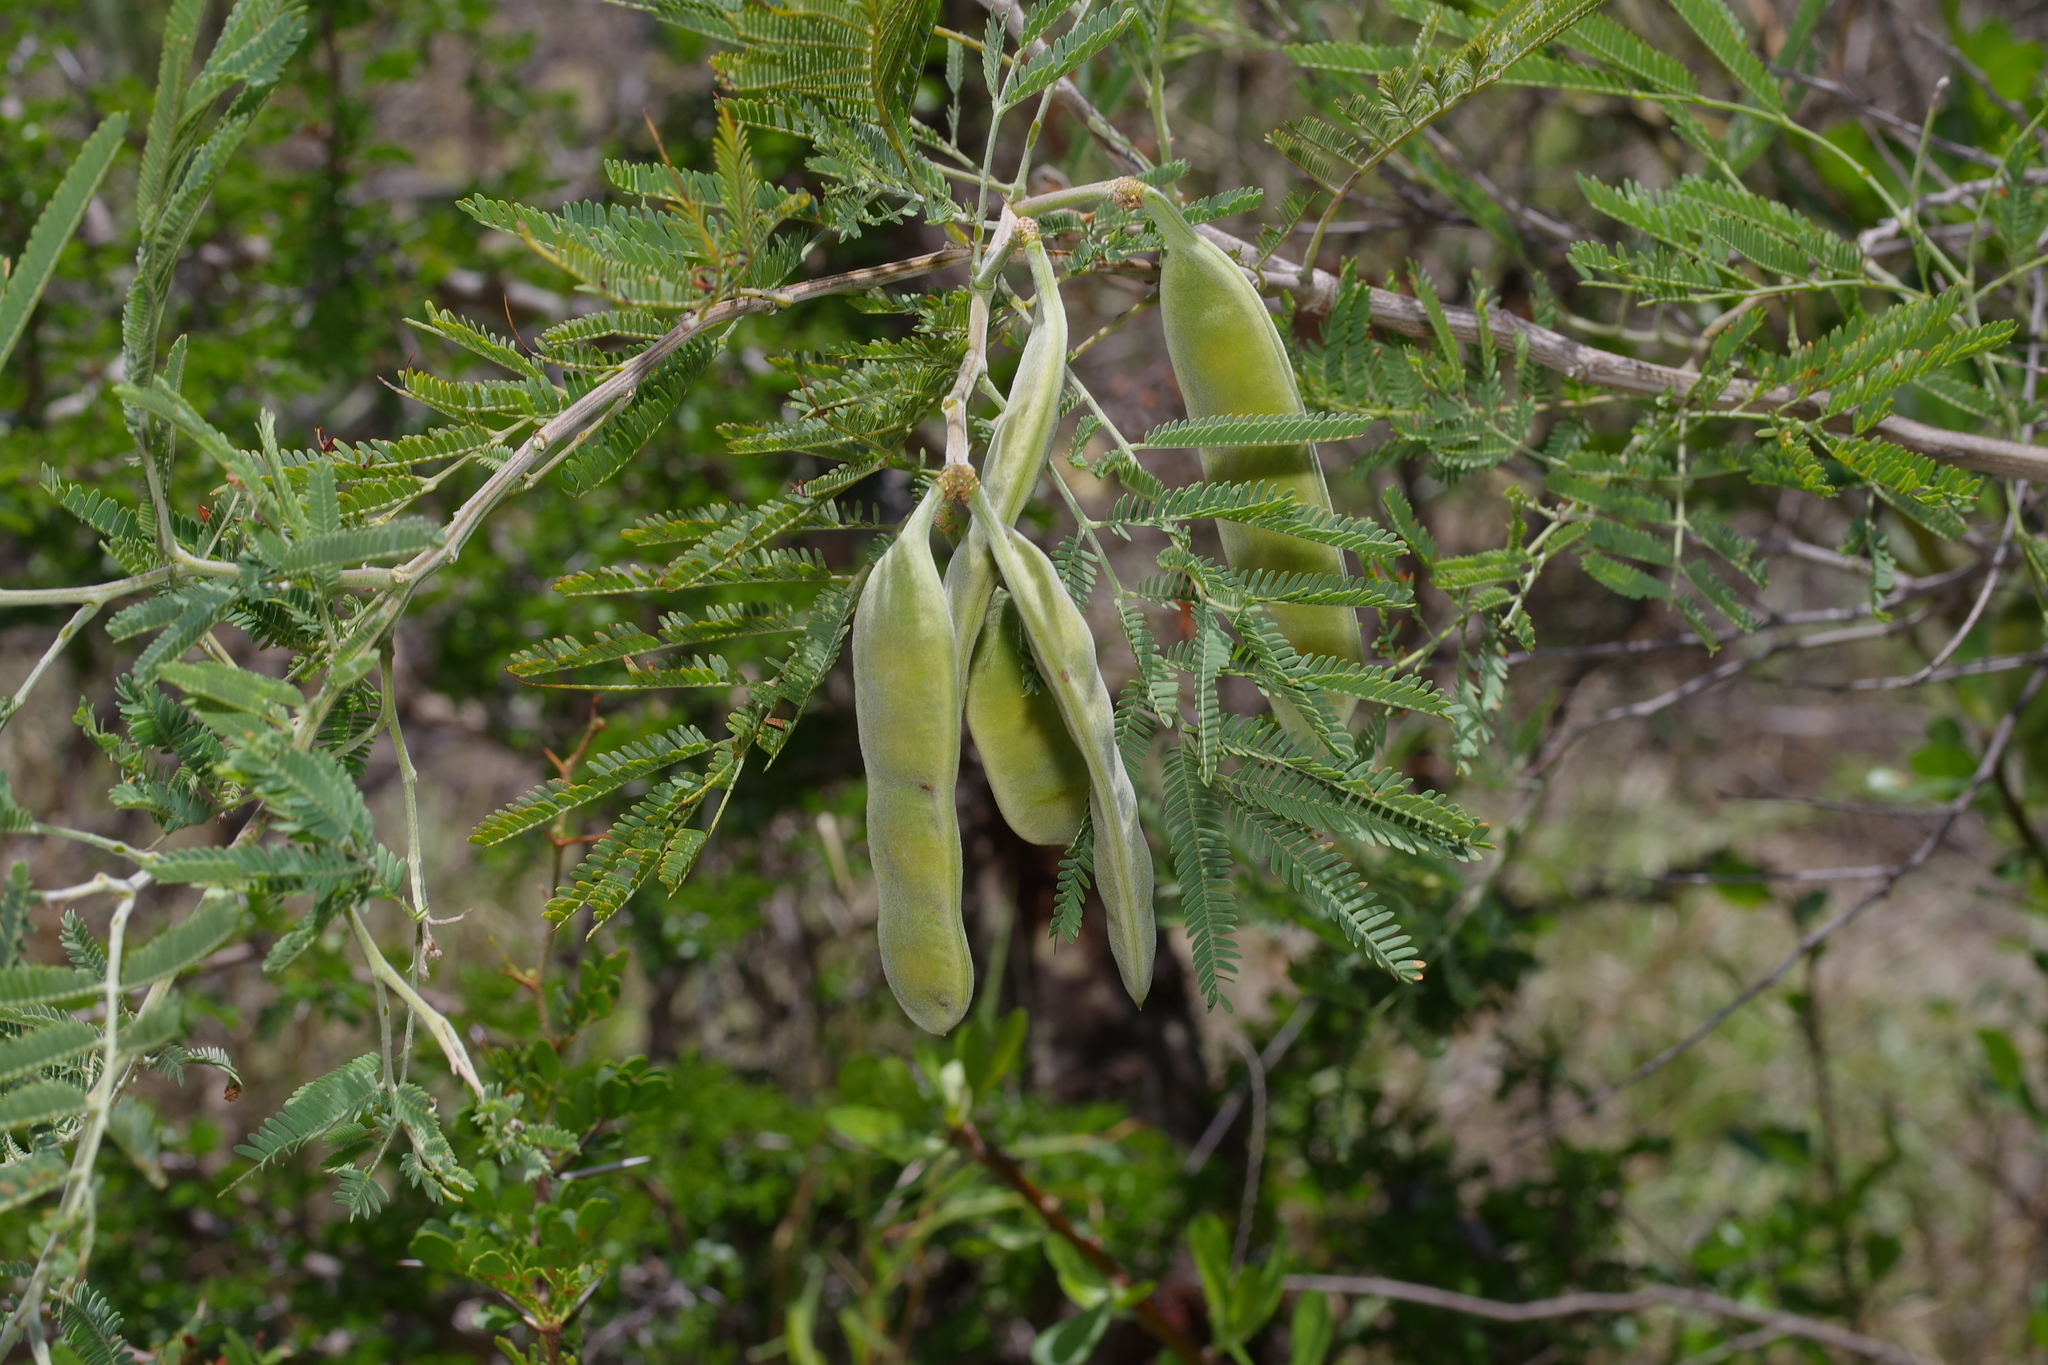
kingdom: Plantae
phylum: Tracheophyta
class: Magnoliopsida
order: Fabales
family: Fabaceae
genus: Senegalia
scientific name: Senegalia berlandieri
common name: Berlandier acacia
